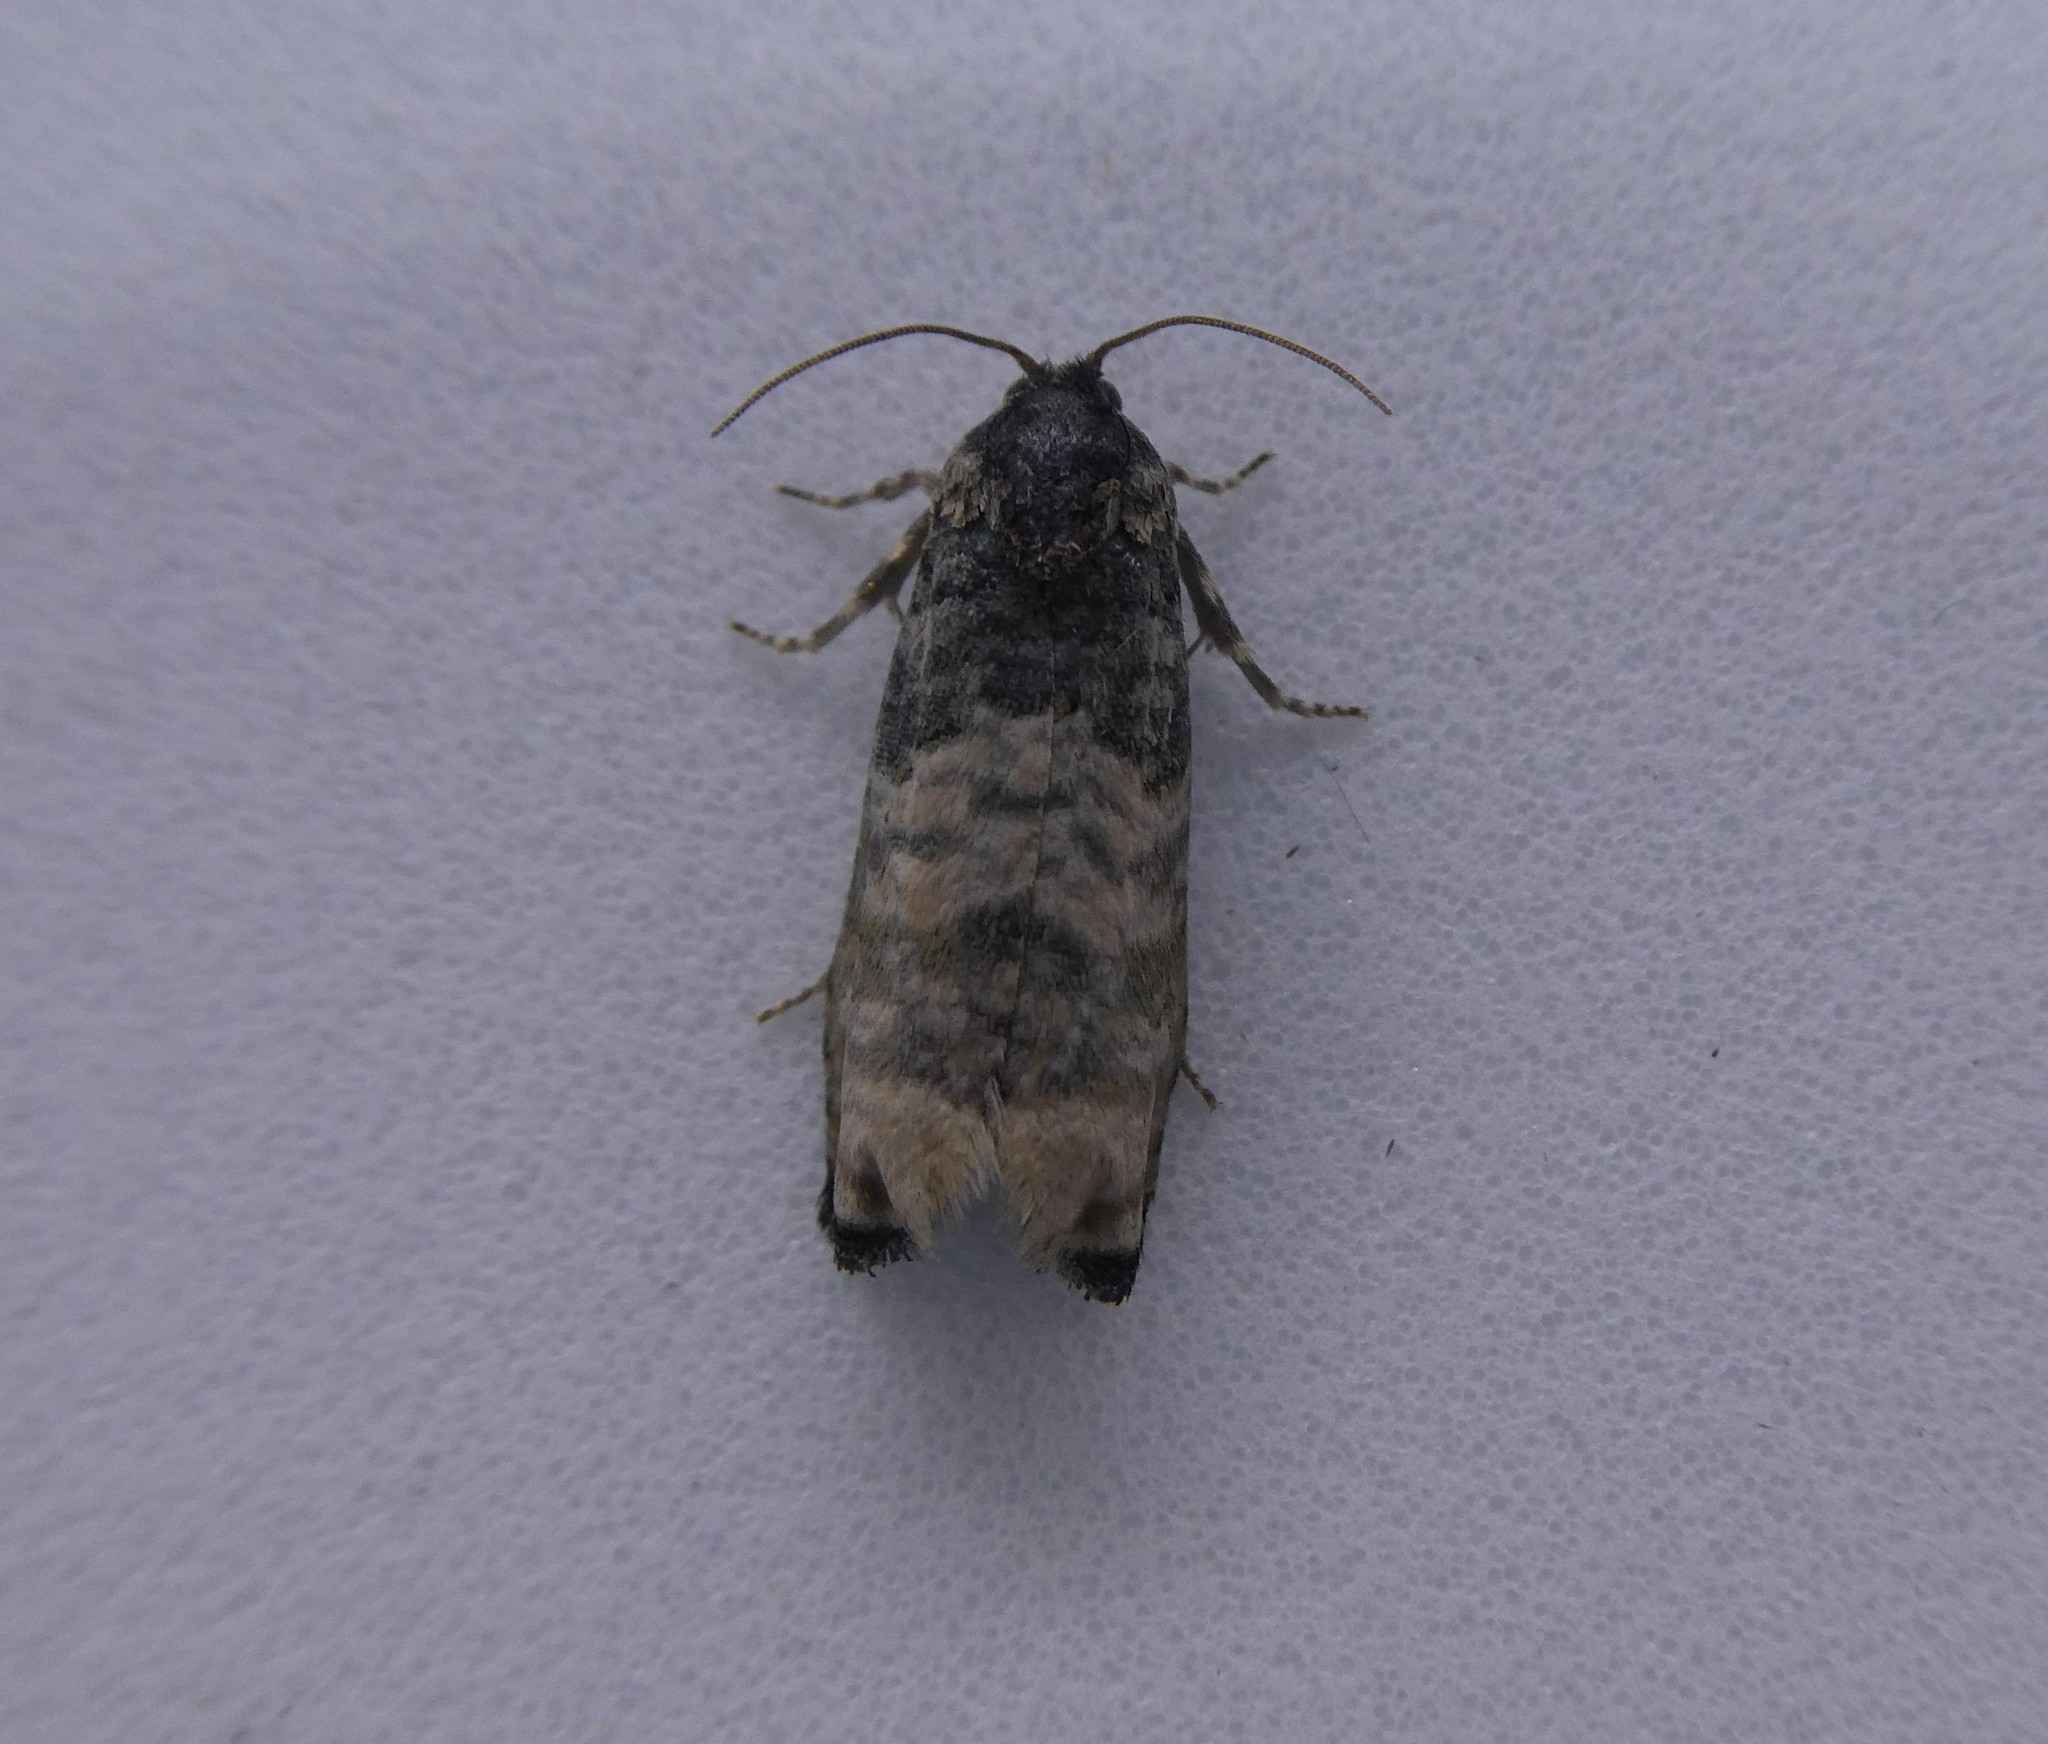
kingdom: Animalia
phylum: Arthropoda
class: Insecta
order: Lepidoptera
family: Tortricidae
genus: Epiblema
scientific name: Epiblema obfuscana
